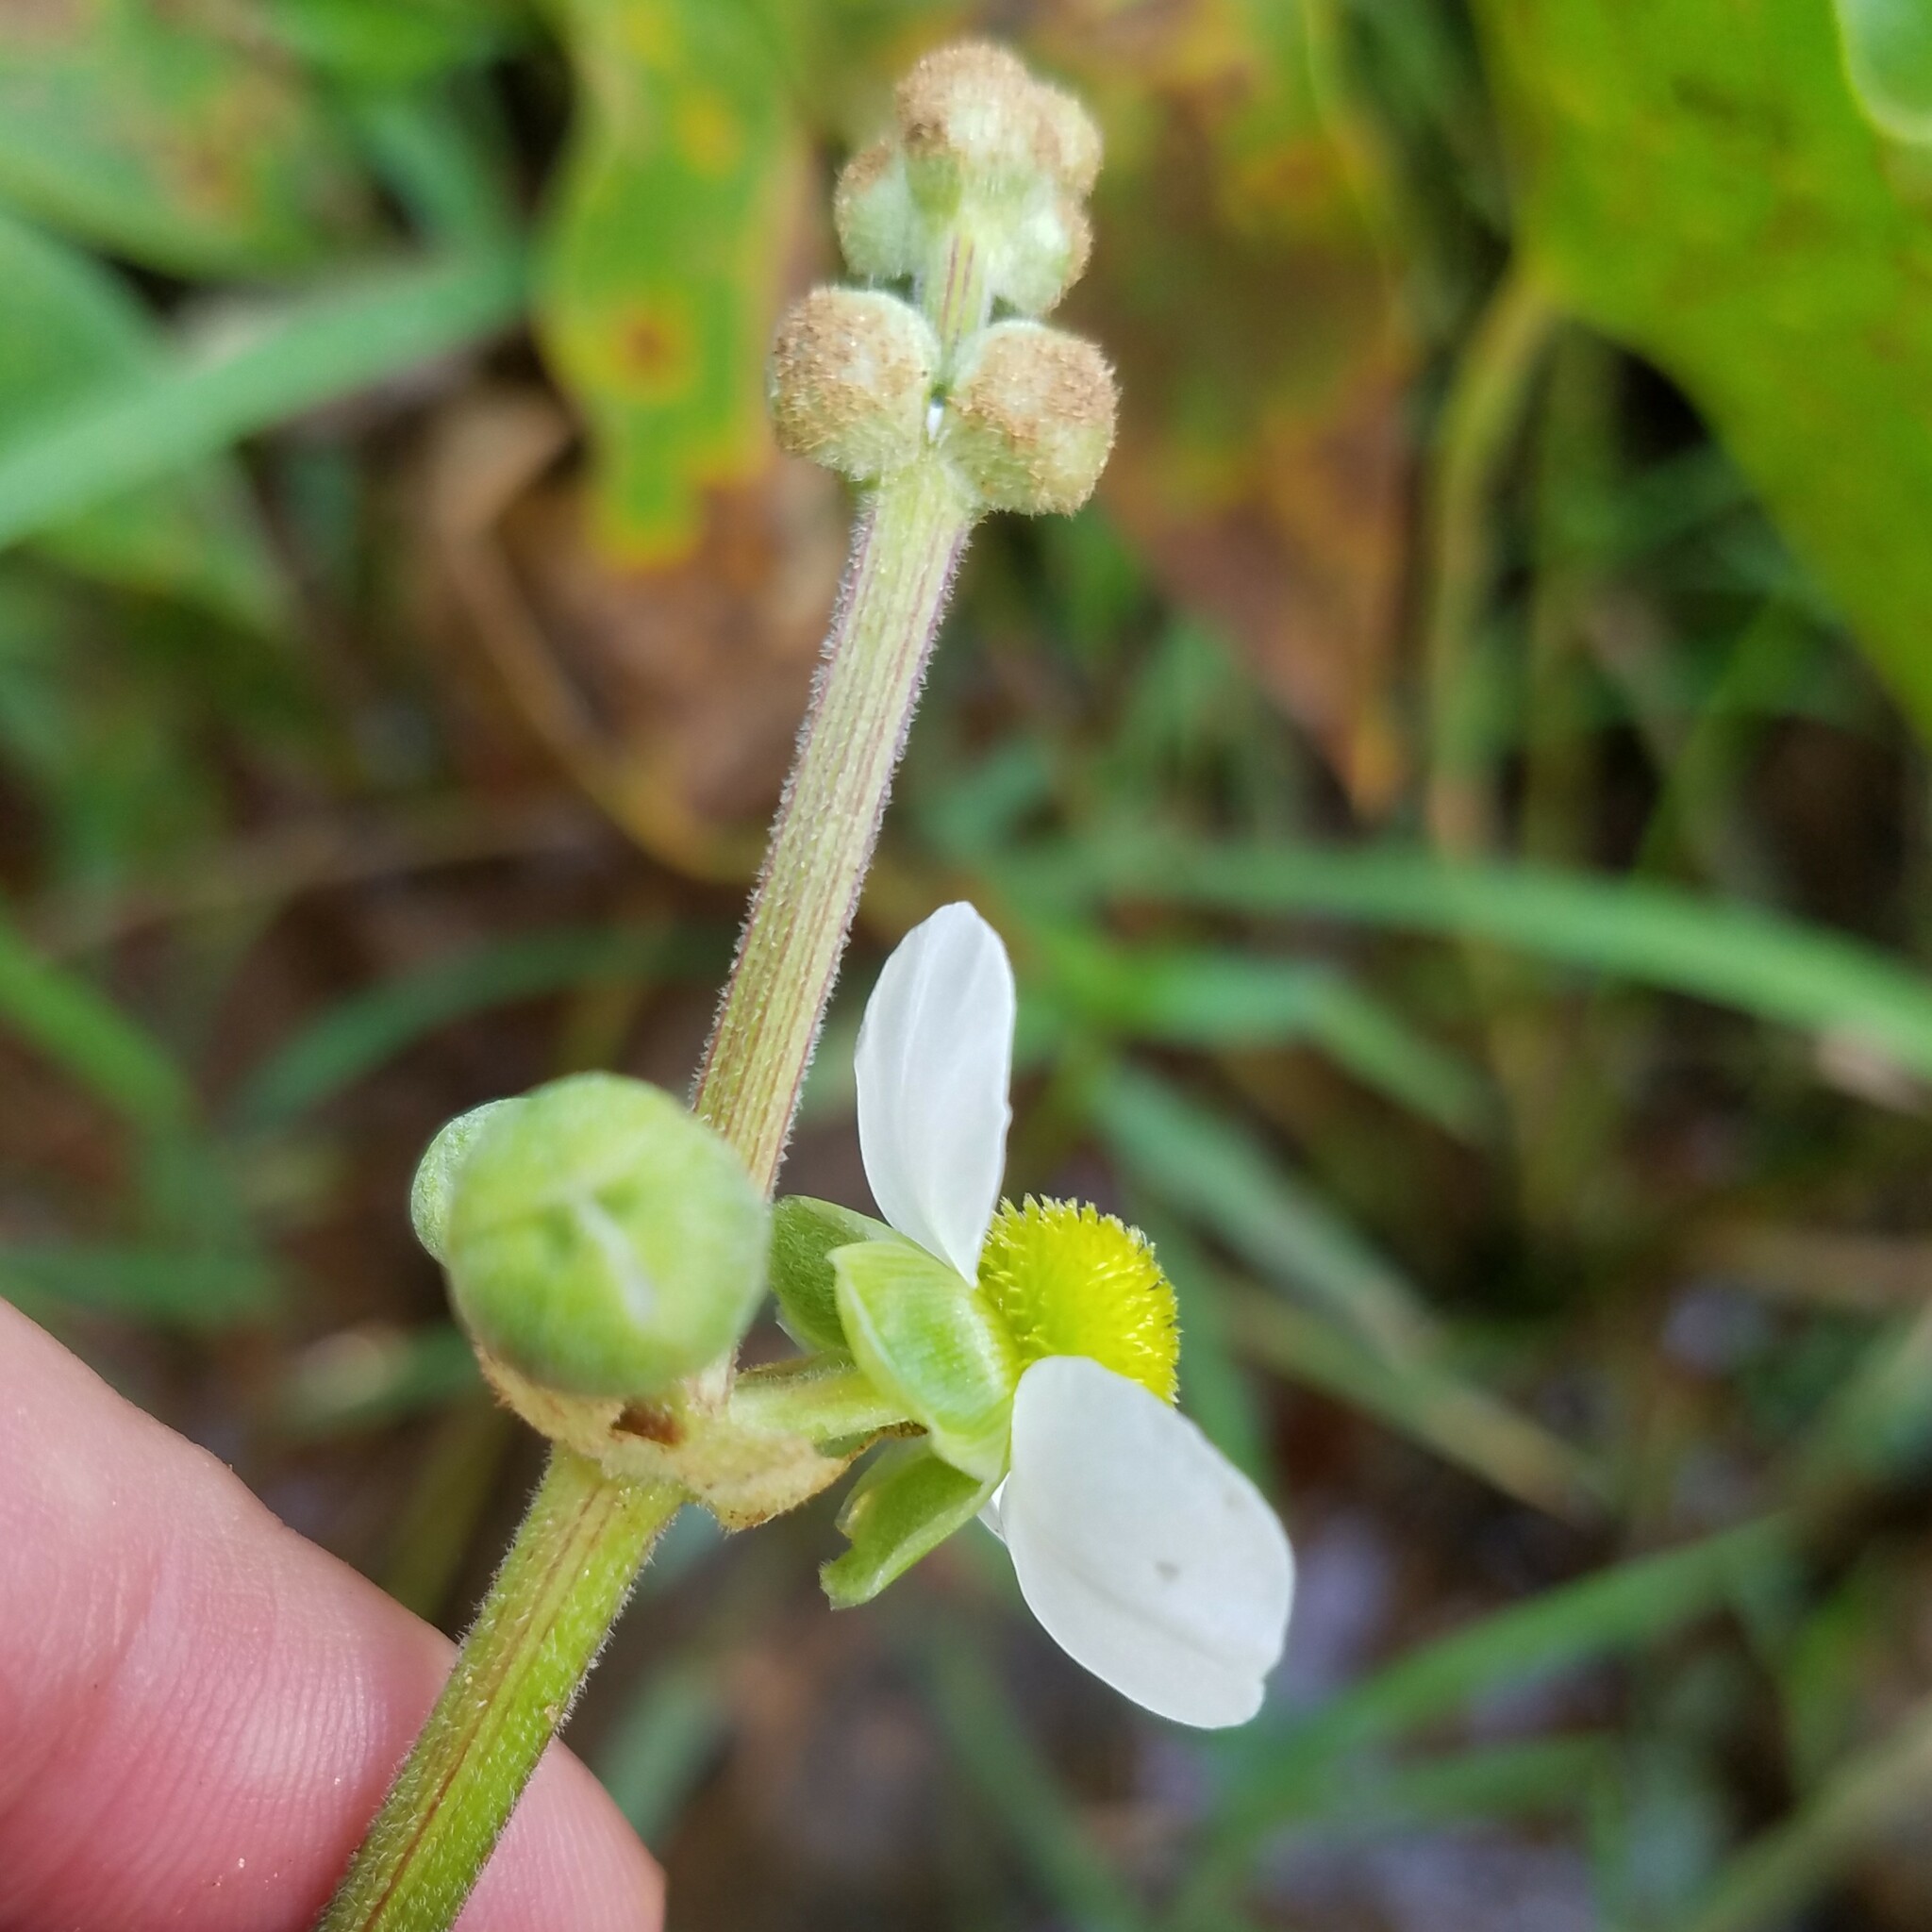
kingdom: Plantae
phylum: Tracheophyta
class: Liliopsida
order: Alismatales
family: Alismataceae
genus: Sagittaria
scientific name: Sagittaria latifolia
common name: Duck-potato
